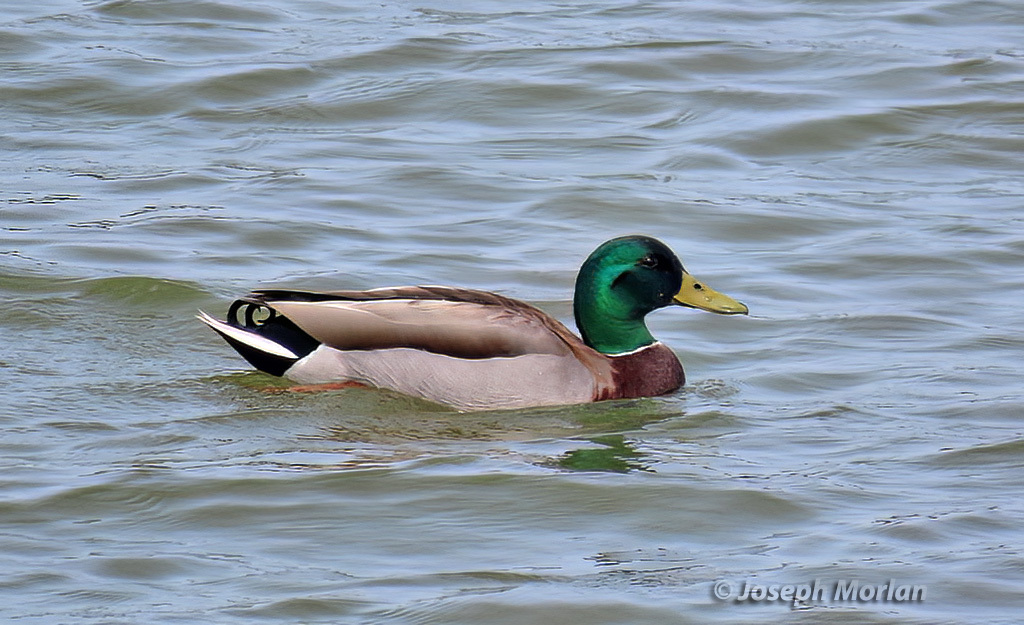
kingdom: Animalia
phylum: Chordata
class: Aves
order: Anseriformes
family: Anatidae
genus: Anas
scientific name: Anas platyrhynchos
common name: Mallard
